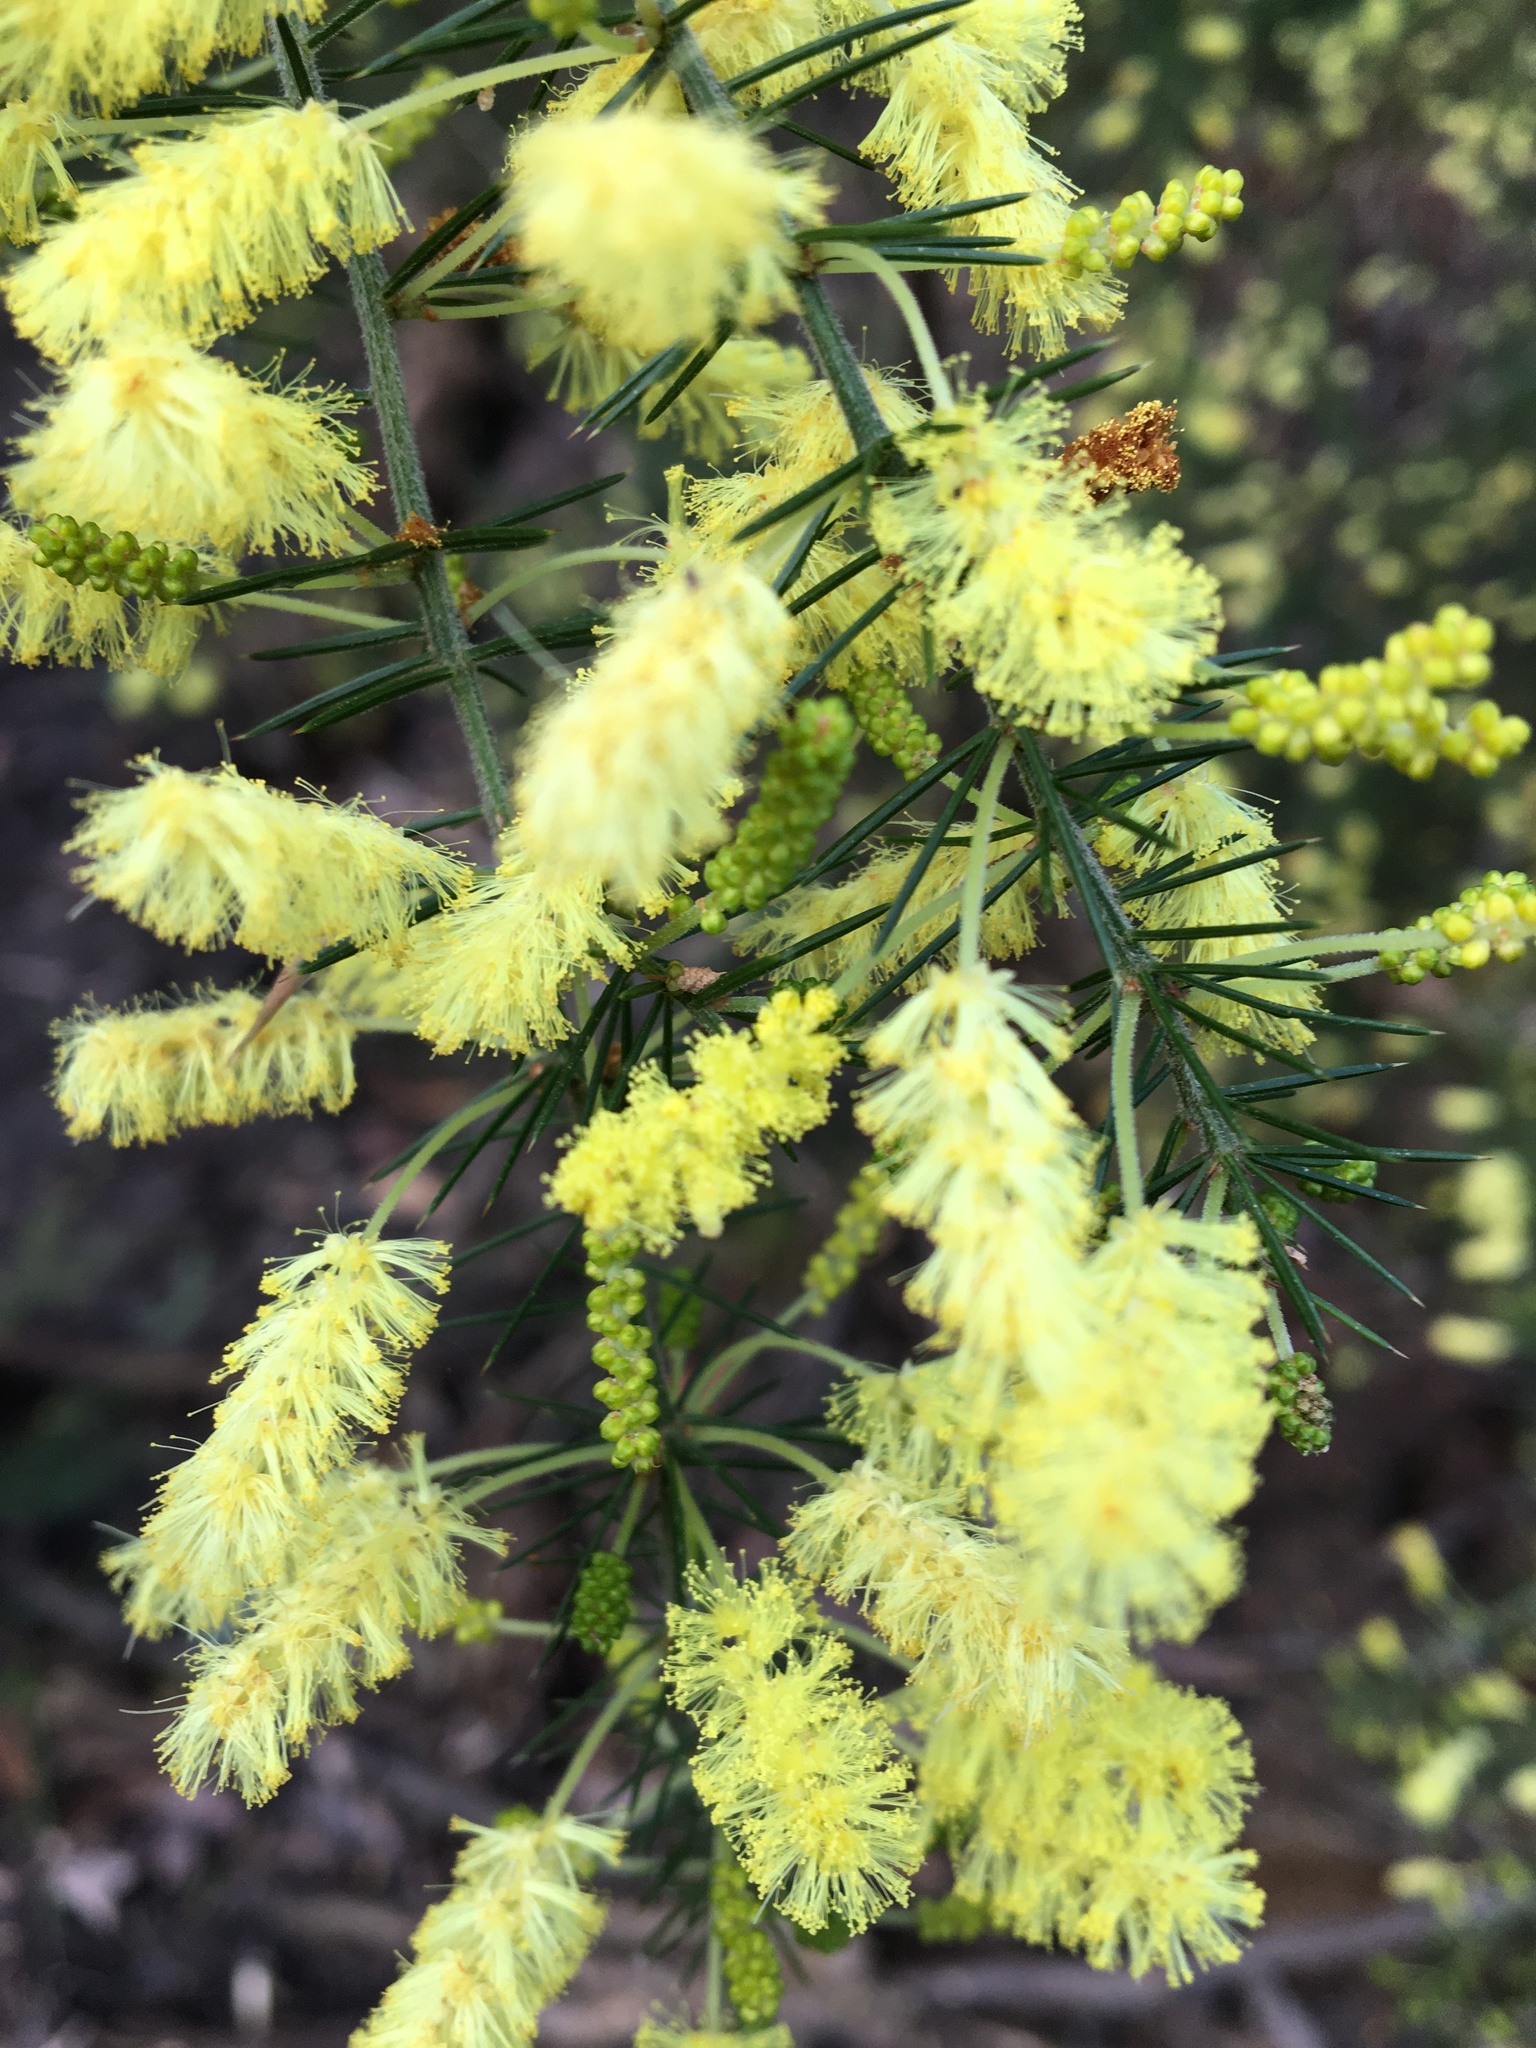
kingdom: Plantae
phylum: Tracheophyta
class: Magnoliopsida
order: Fabales
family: Fabaceae
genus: Acacia
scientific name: Acacia verticillata
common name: Prickly moses
